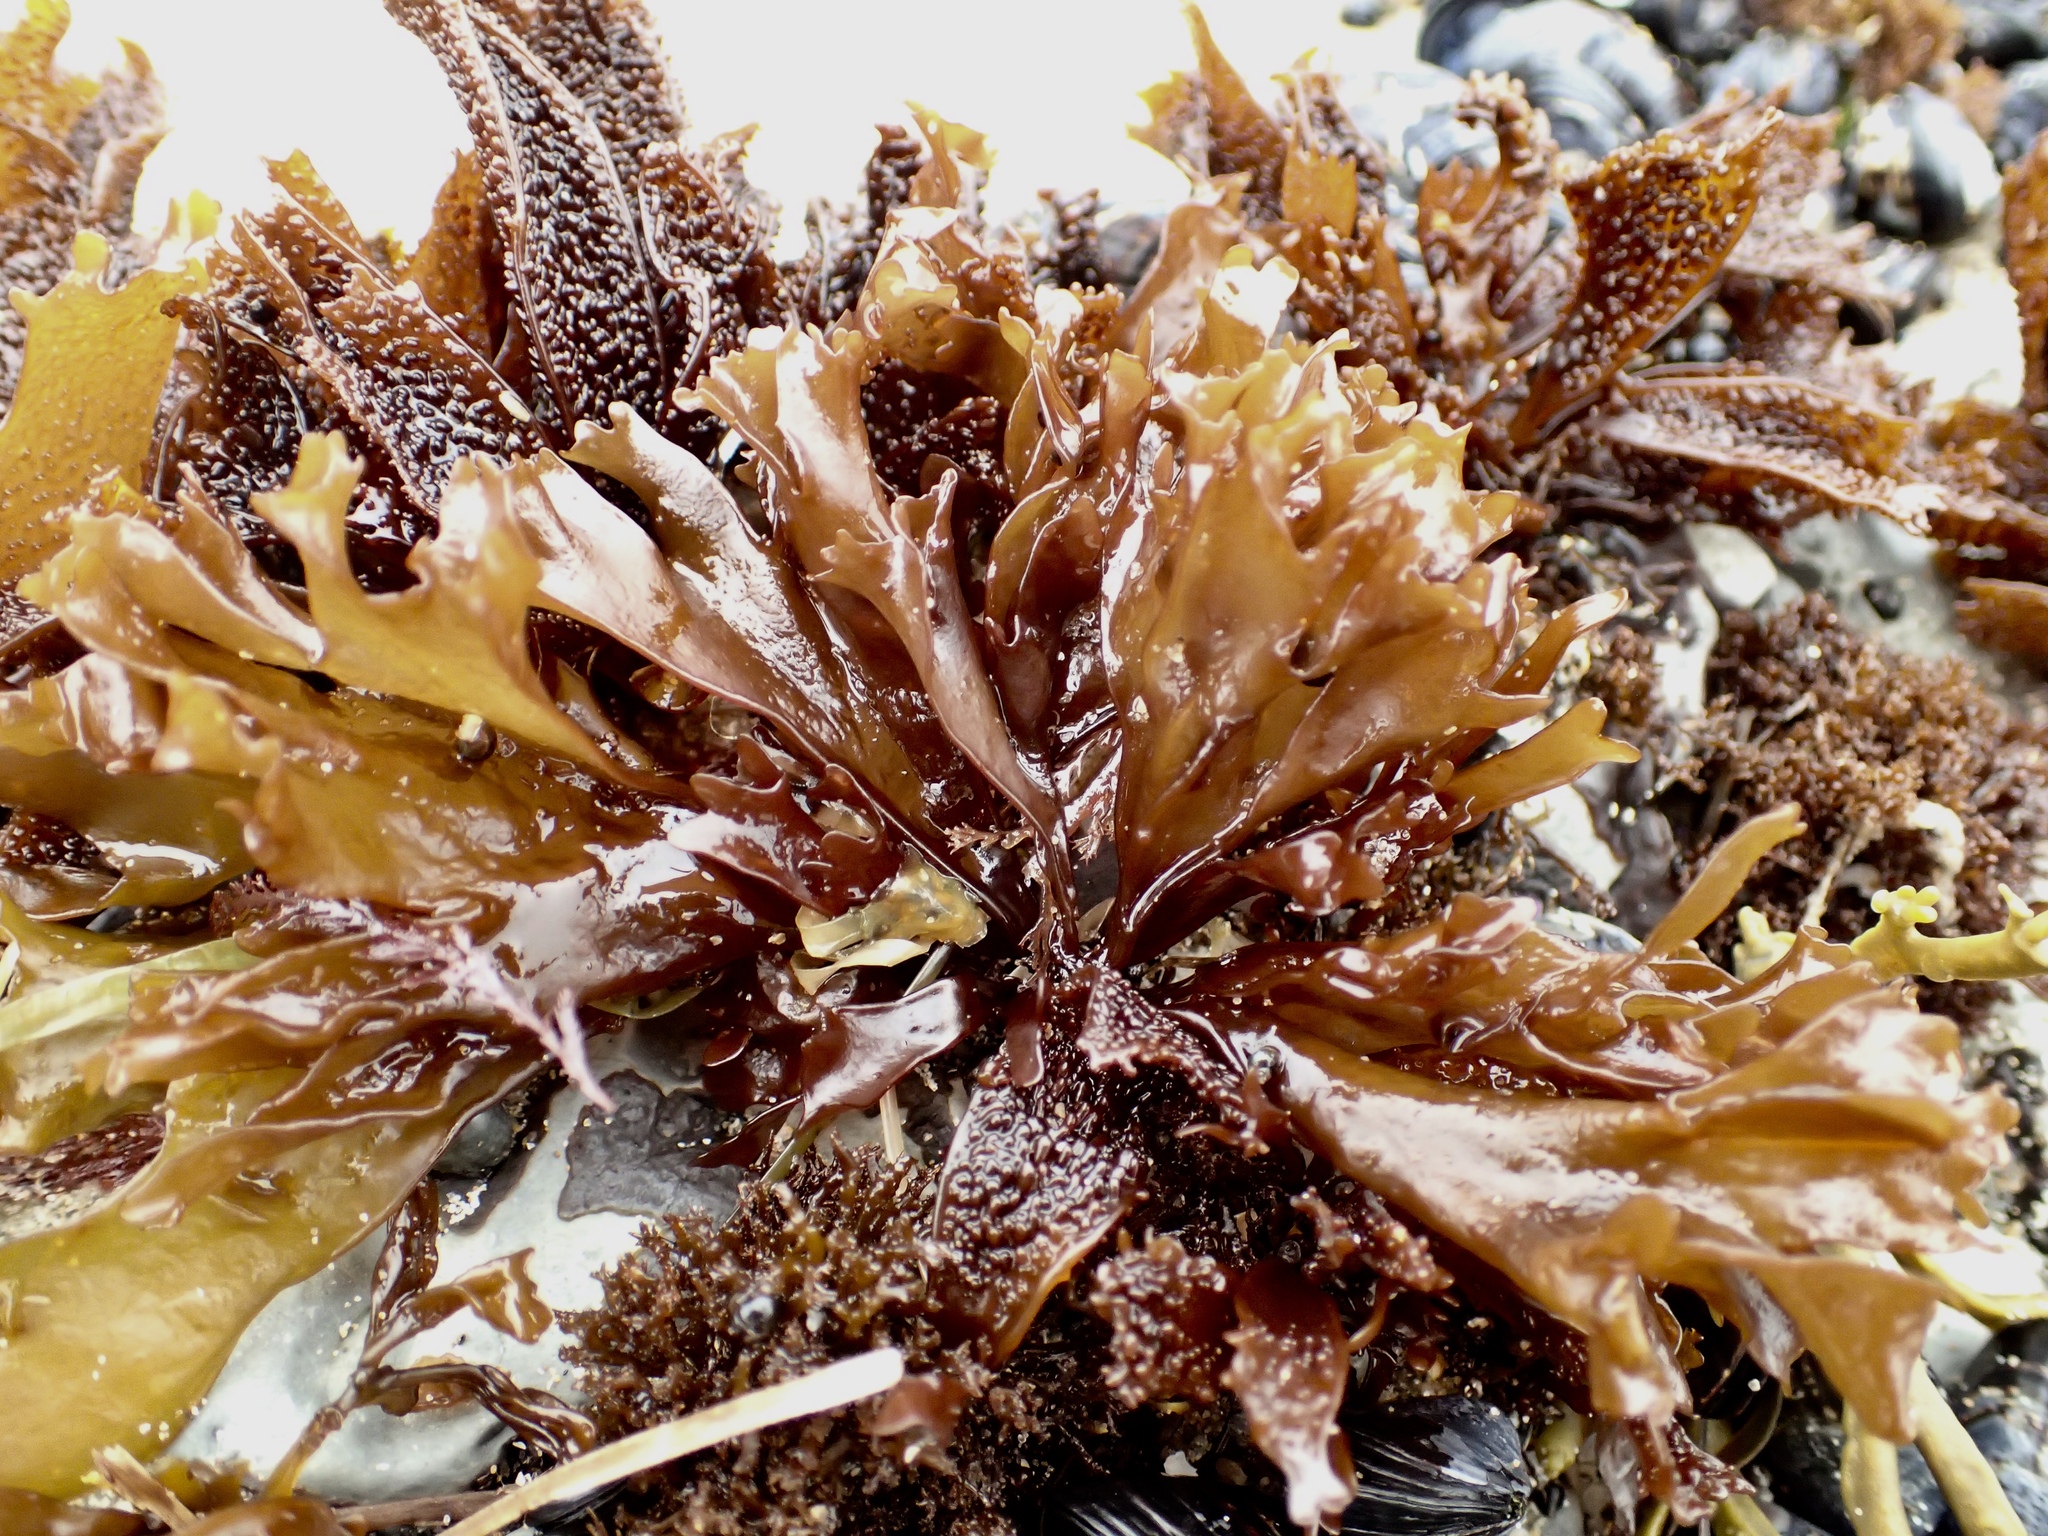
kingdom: Plantae
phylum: Rhodophyta
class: Florideophyceae
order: Gigartinales
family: Phyllophoraceae
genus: Mastocarpus
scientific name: Mastocarpus papillatus
